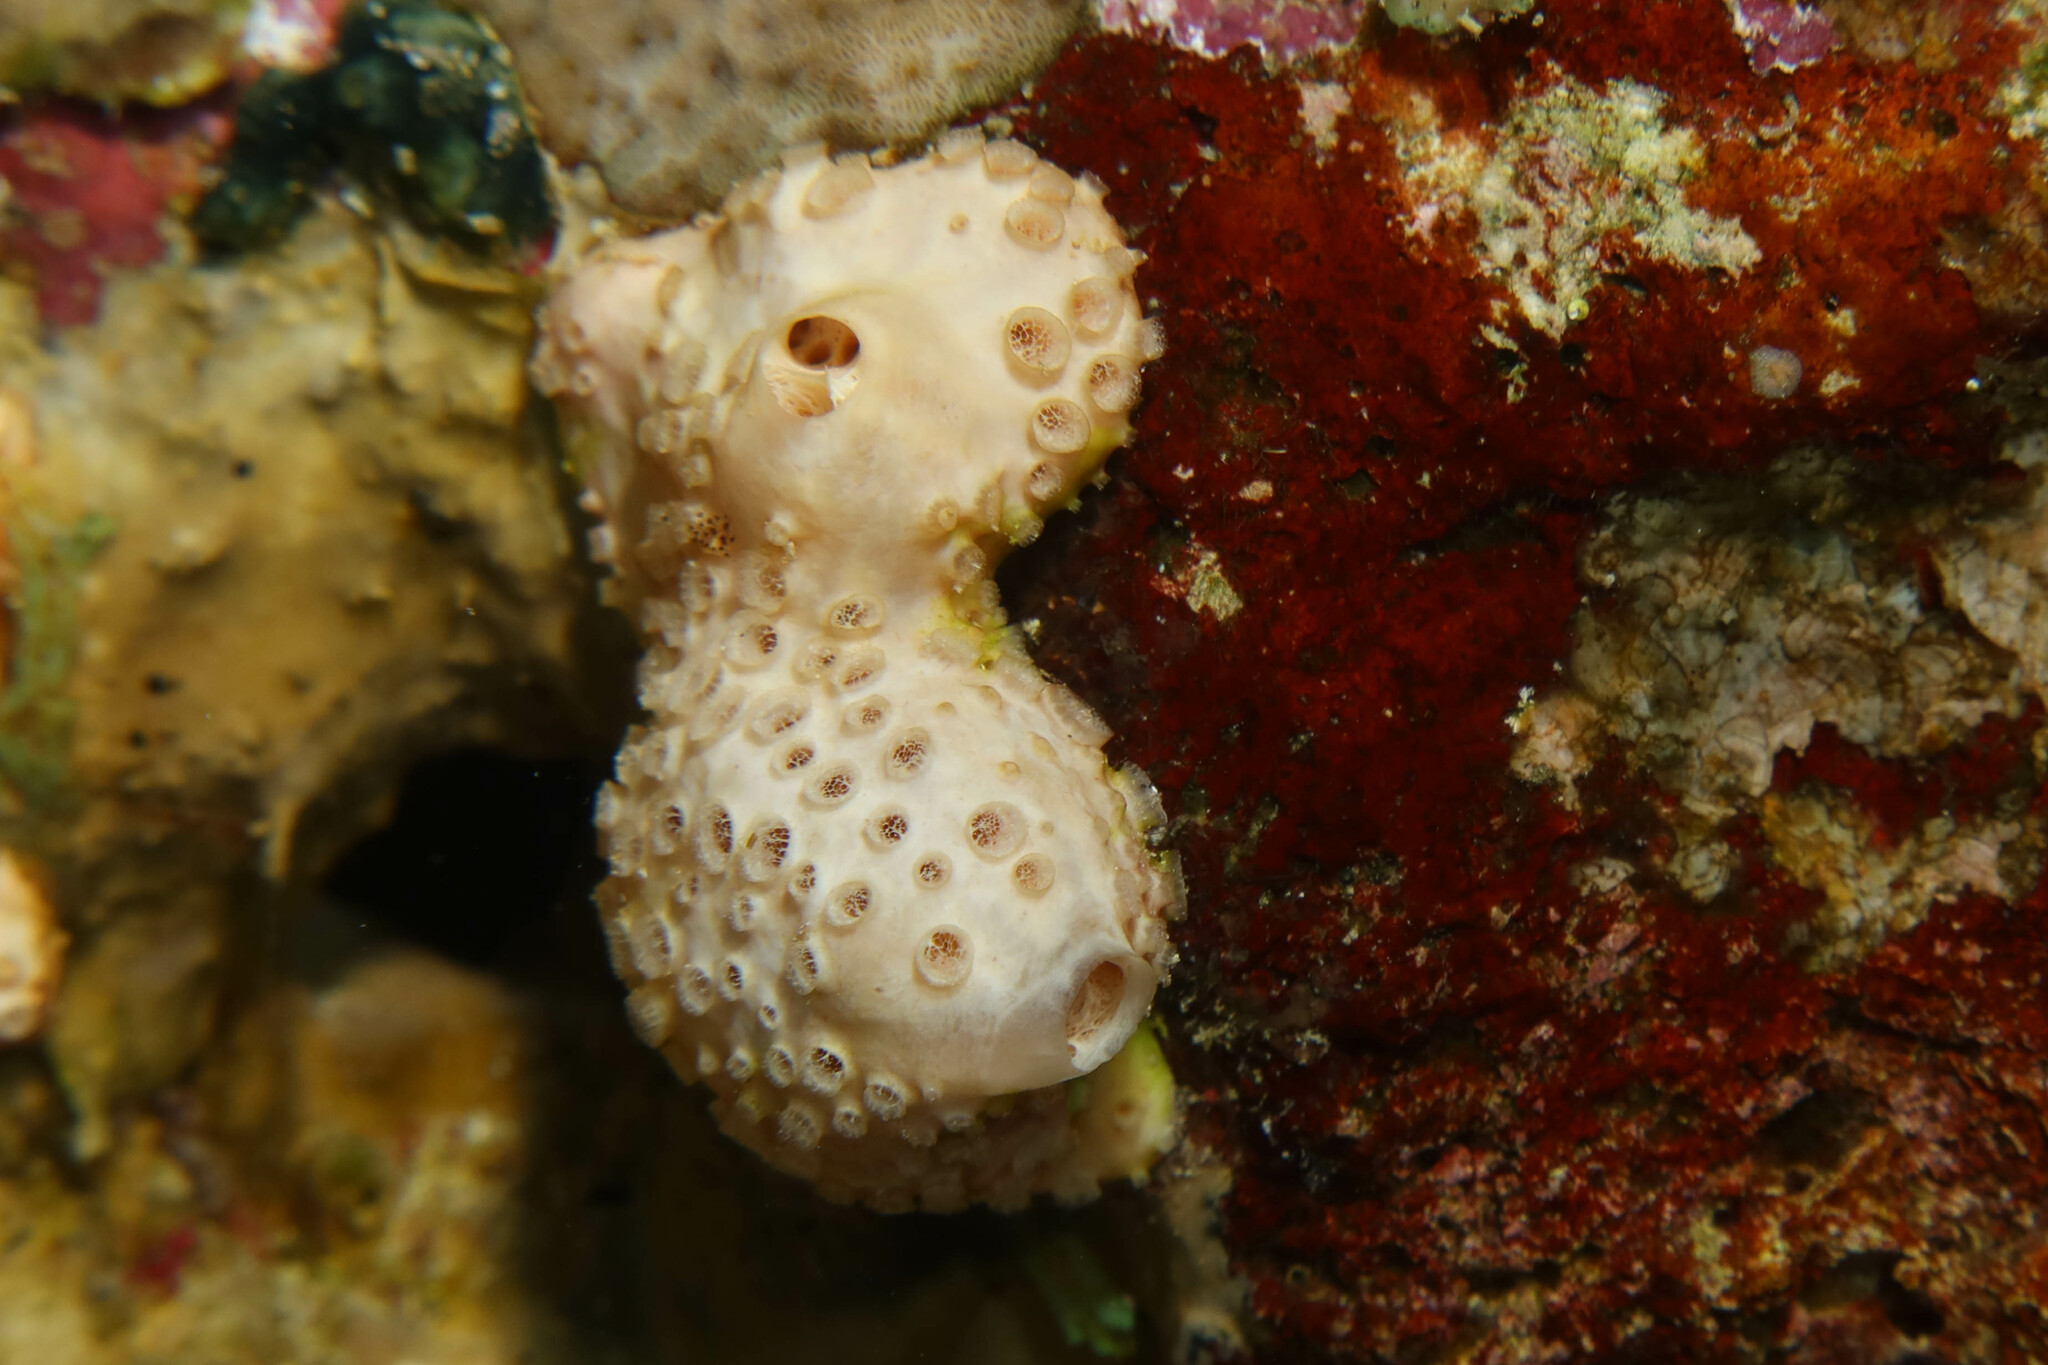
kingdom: Animalia
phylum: Porifera
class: Demospongiae
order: Poecilosclerida
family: Crellidae
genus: Crella
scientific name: Crella cyathophora
